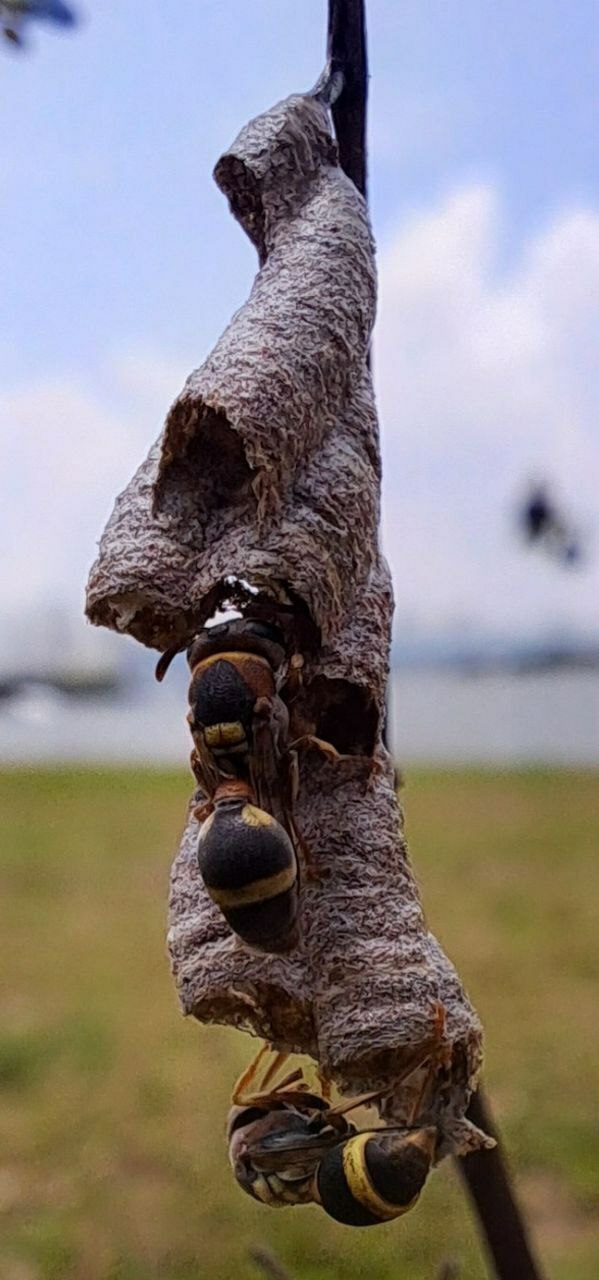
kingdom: Animalia
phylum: Arthropoda
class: Insecta
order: Hymenoptera
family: Vespidae
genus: Ropalidia
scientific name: Ropalidia jacobsoni
